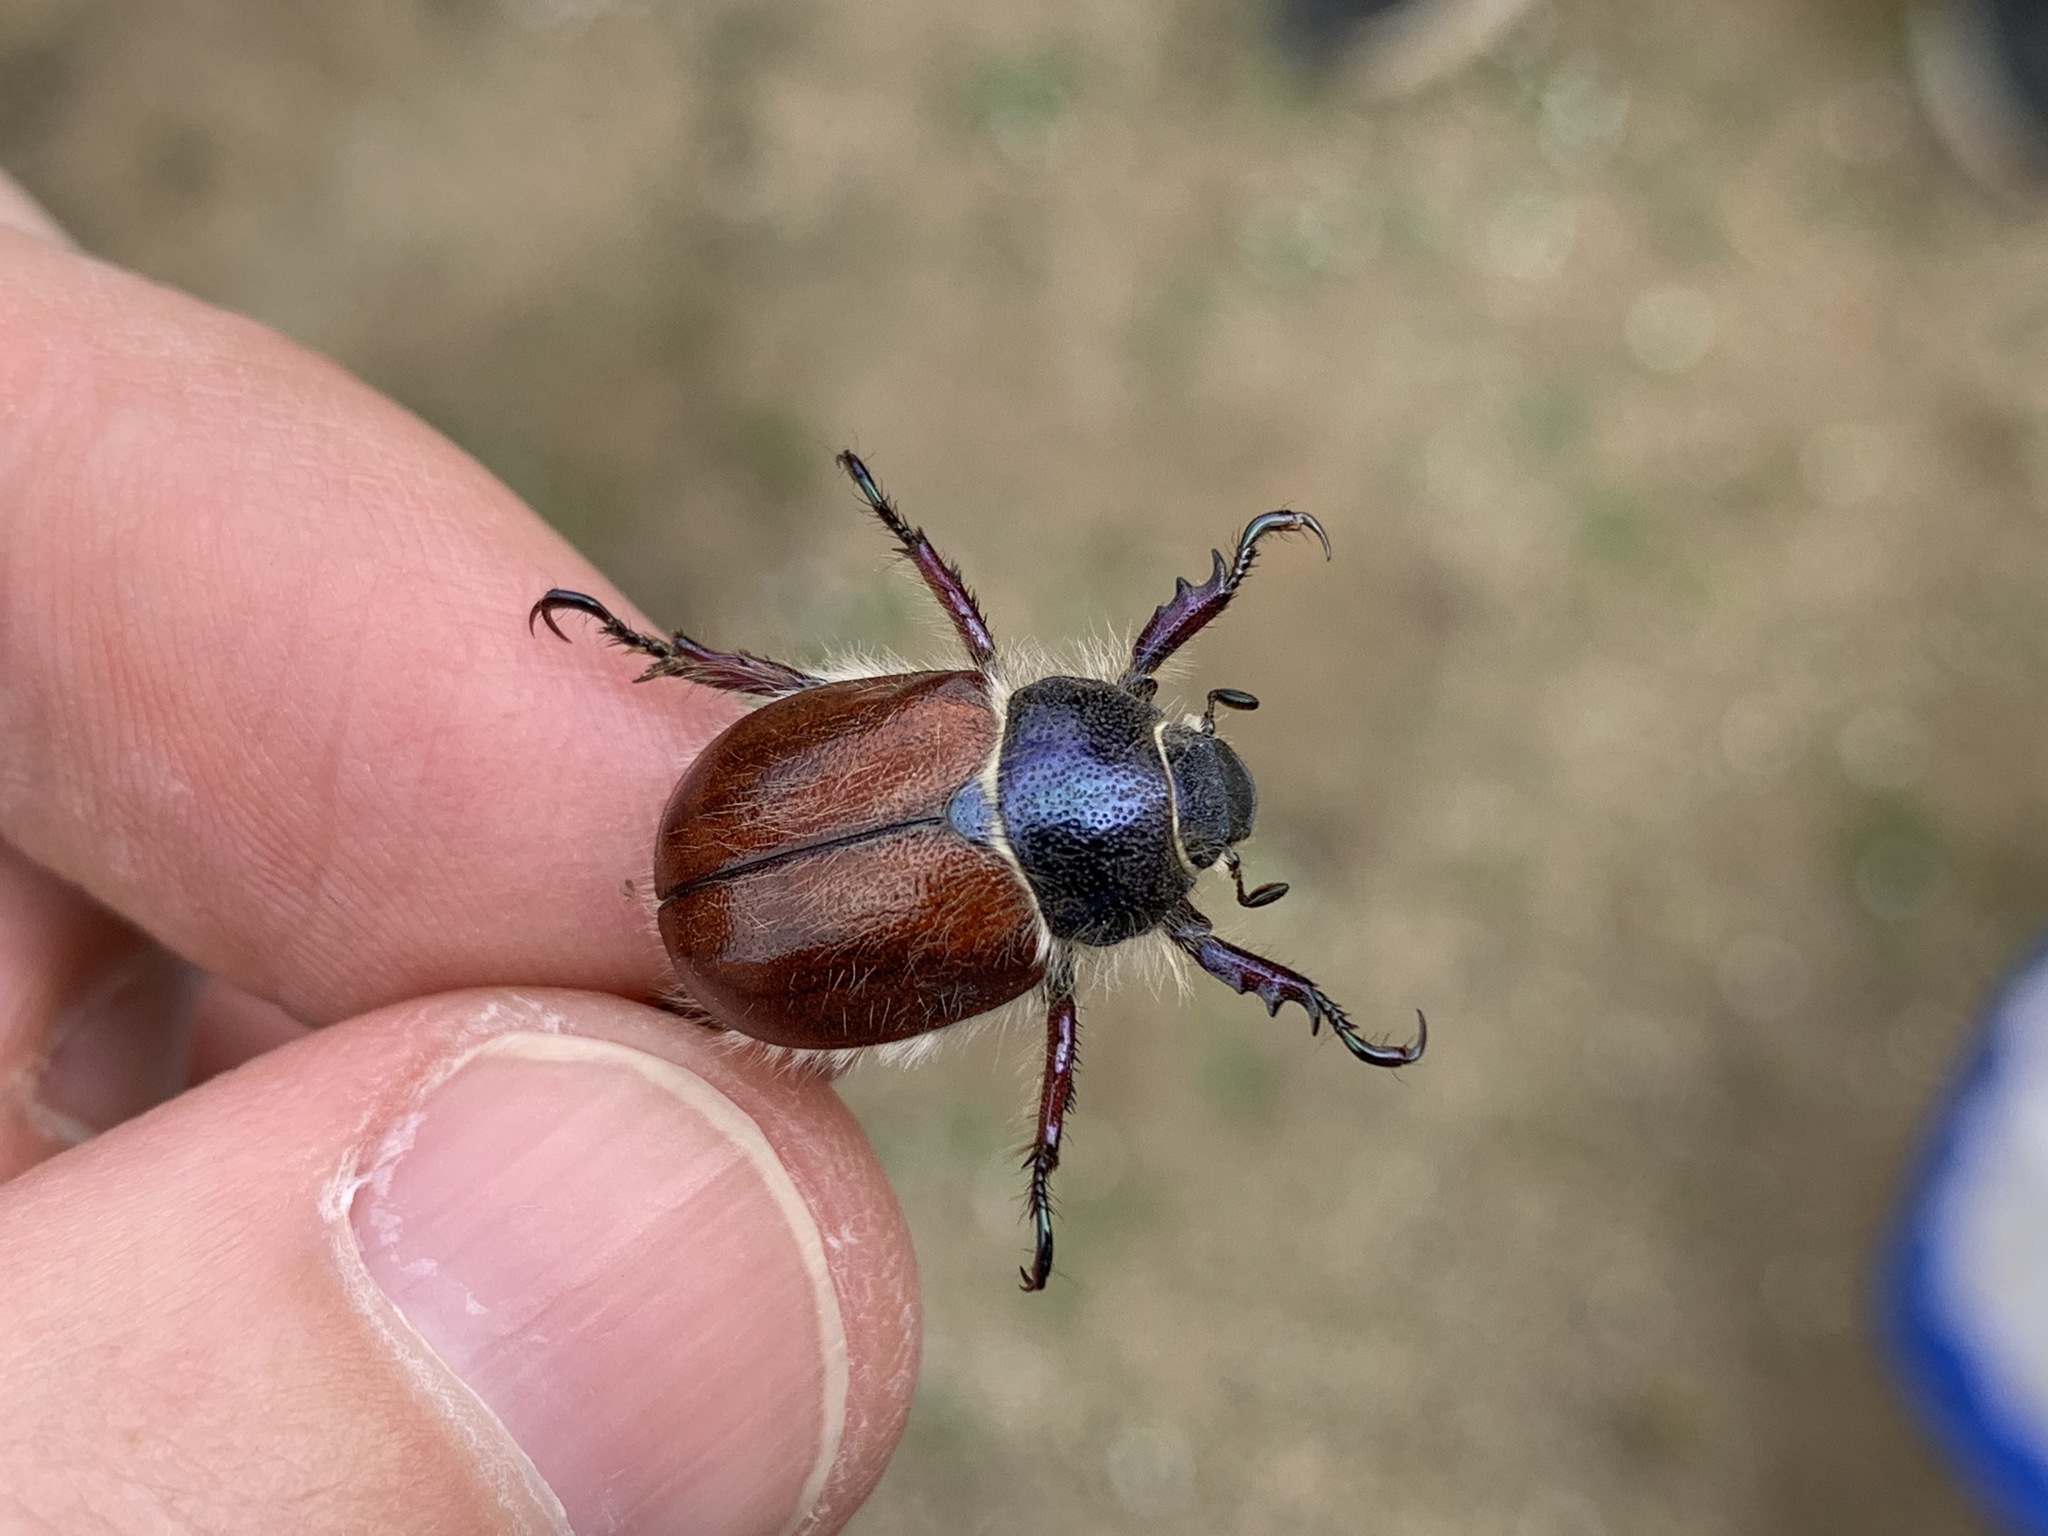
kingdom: Animalia
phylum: Arthropoda
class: Insecta
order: Coleoptera
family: Scarabaeidae
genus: Paracotalpa
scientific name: Paracotalpa ursina
